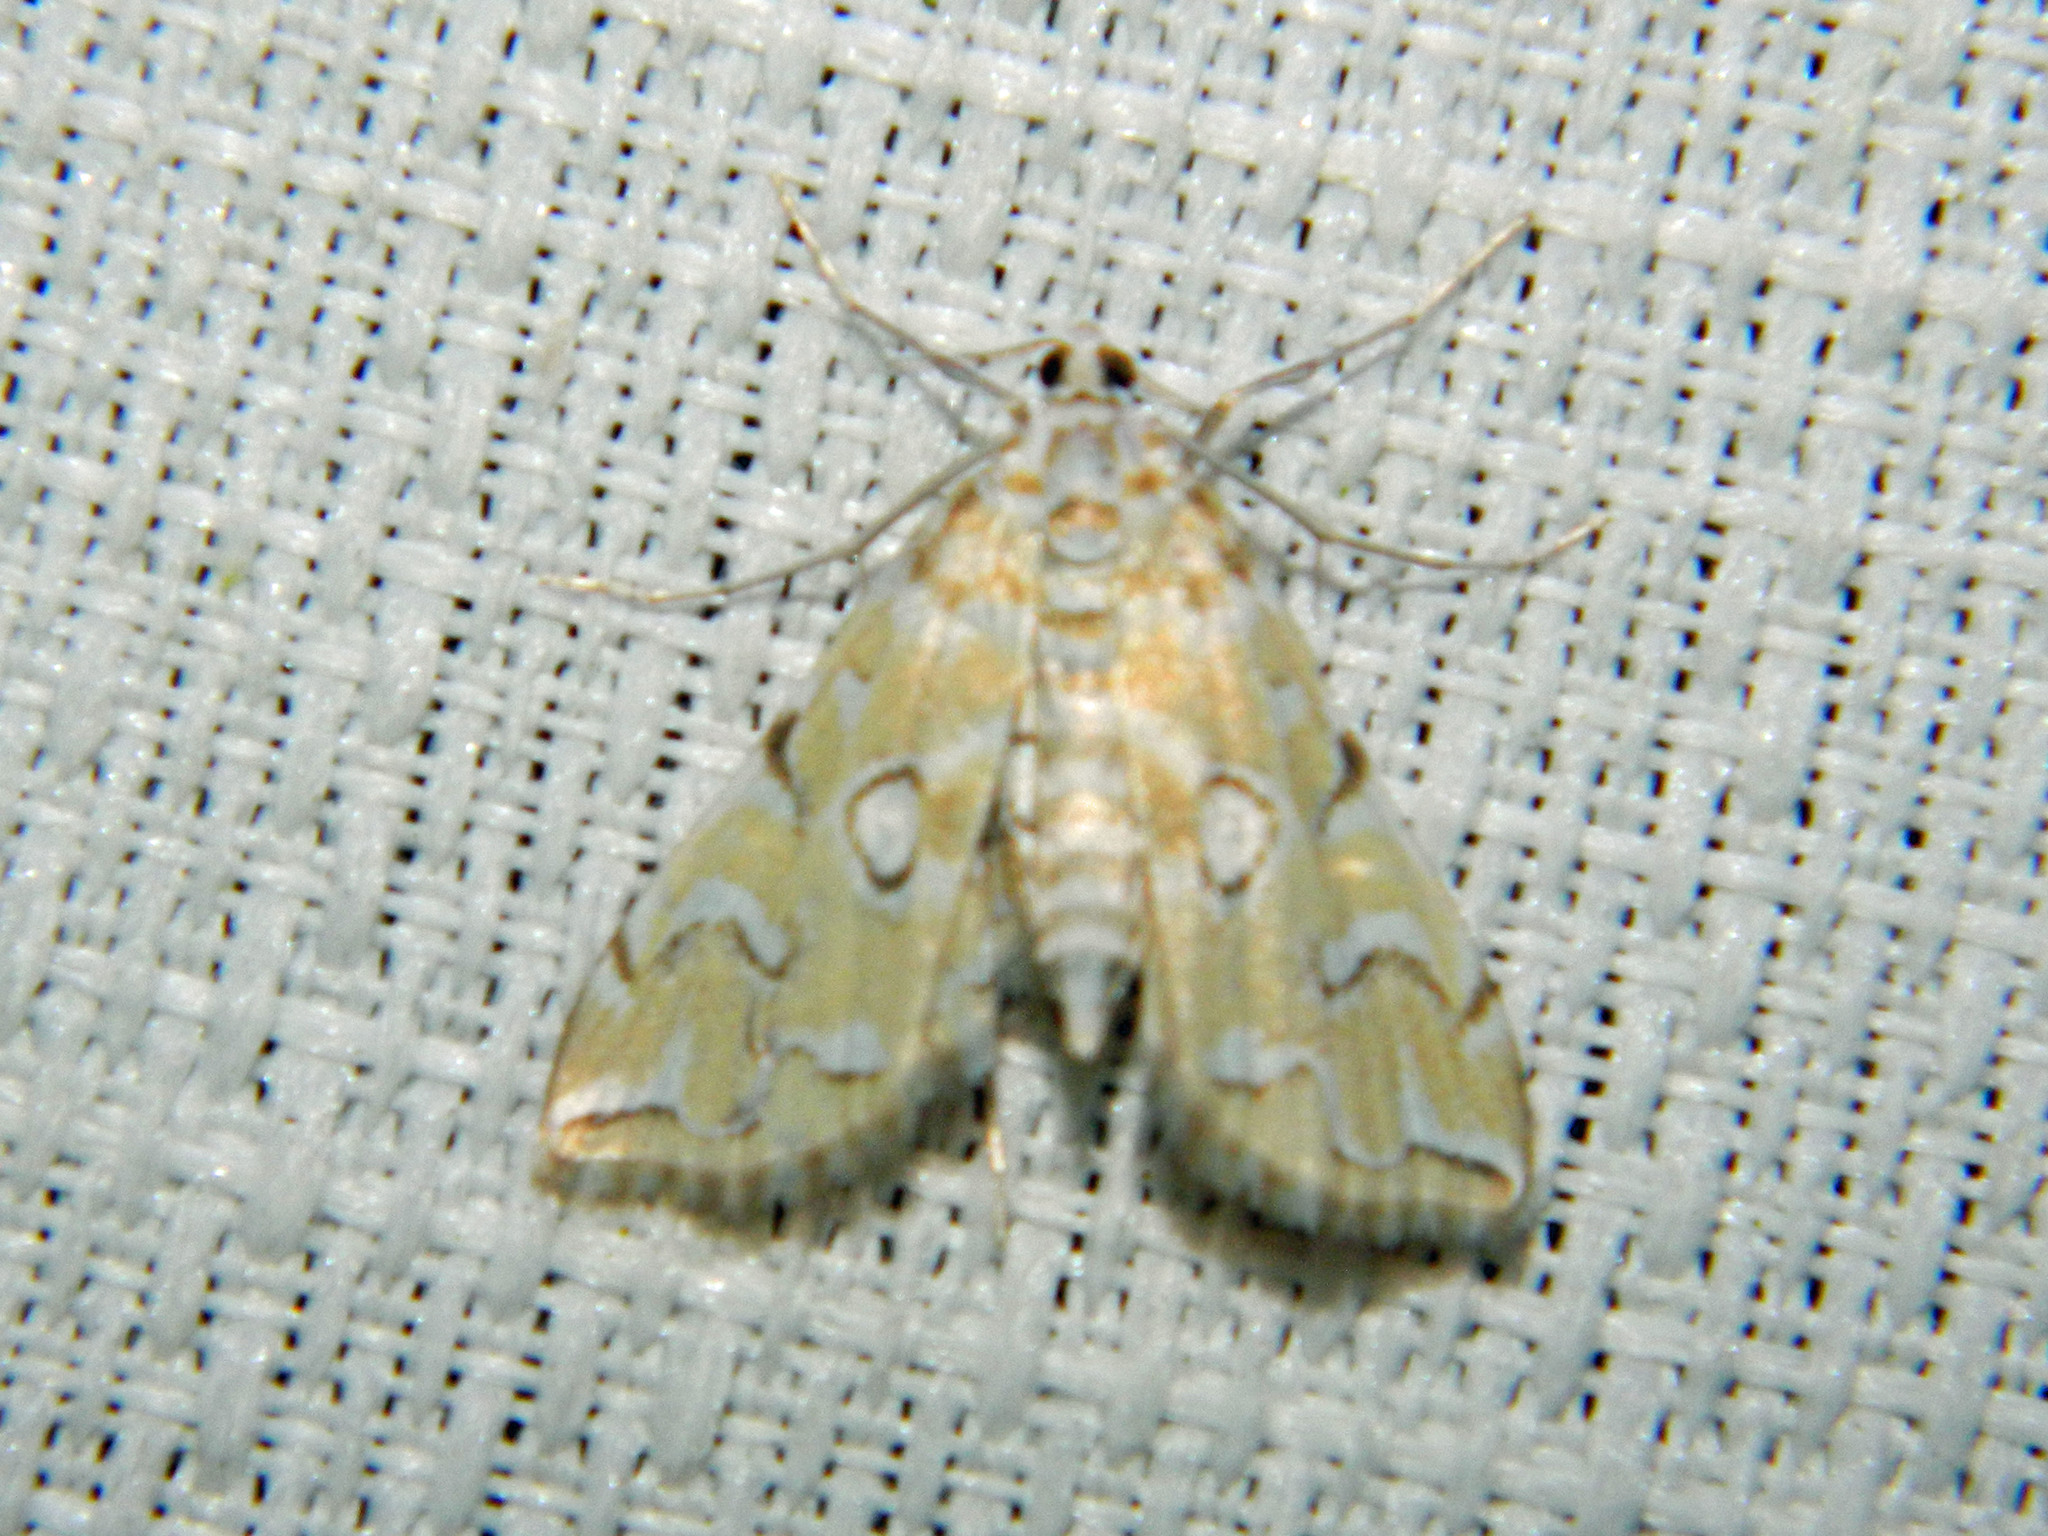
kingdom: Animalia
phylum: Arthropoda
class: Insecta
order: Lepidoptera
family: Crambidae
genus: Elophila
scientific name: Elophila icciusalis
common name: Pondside pyralid moth
